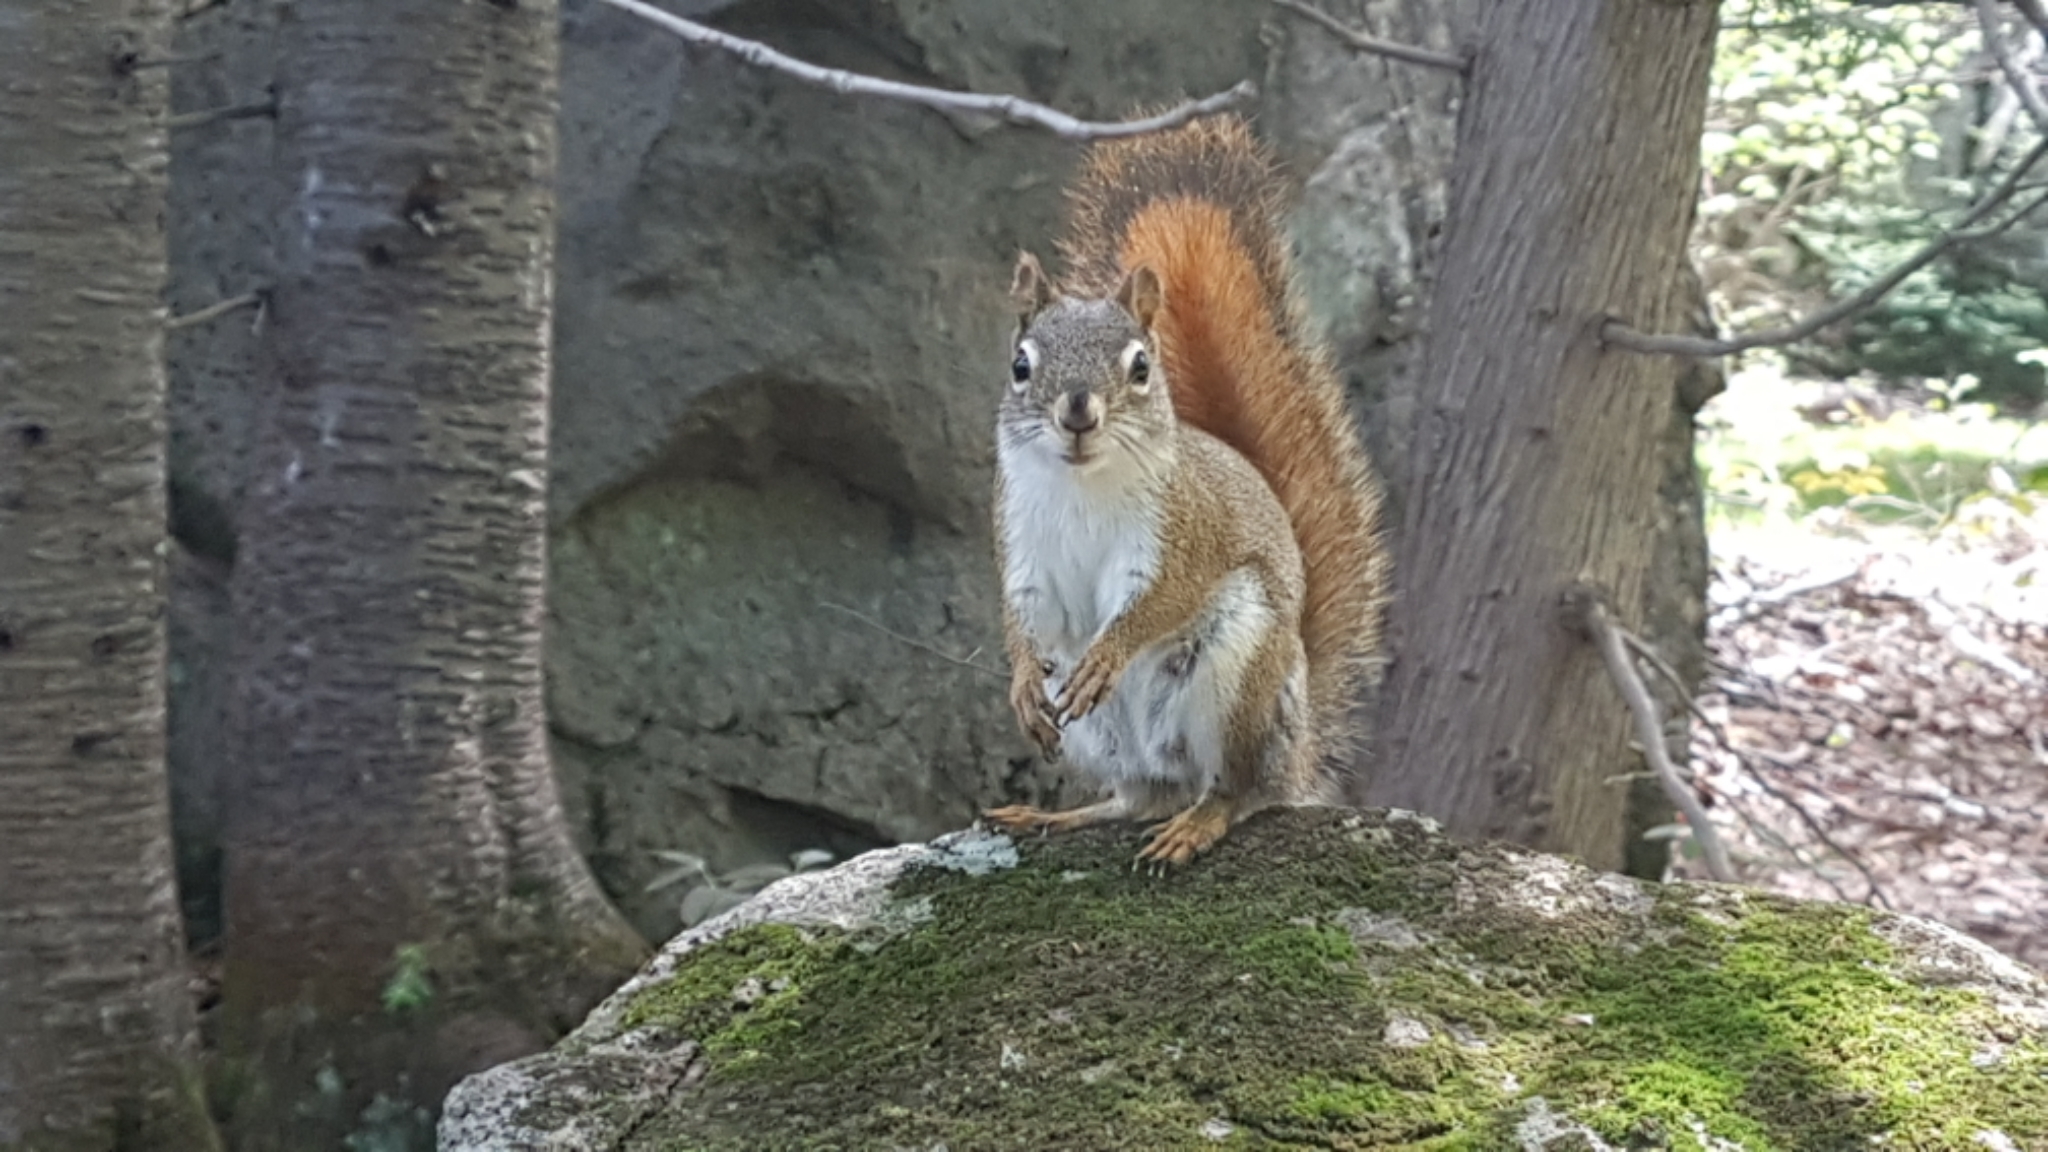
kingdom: Animalia
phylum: Chordata
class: Mammalia
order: Rodentia
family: Sciuridae
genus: Tamiasciurus
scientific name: Tamiasciurus hudsonicus
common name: Red squirrel
